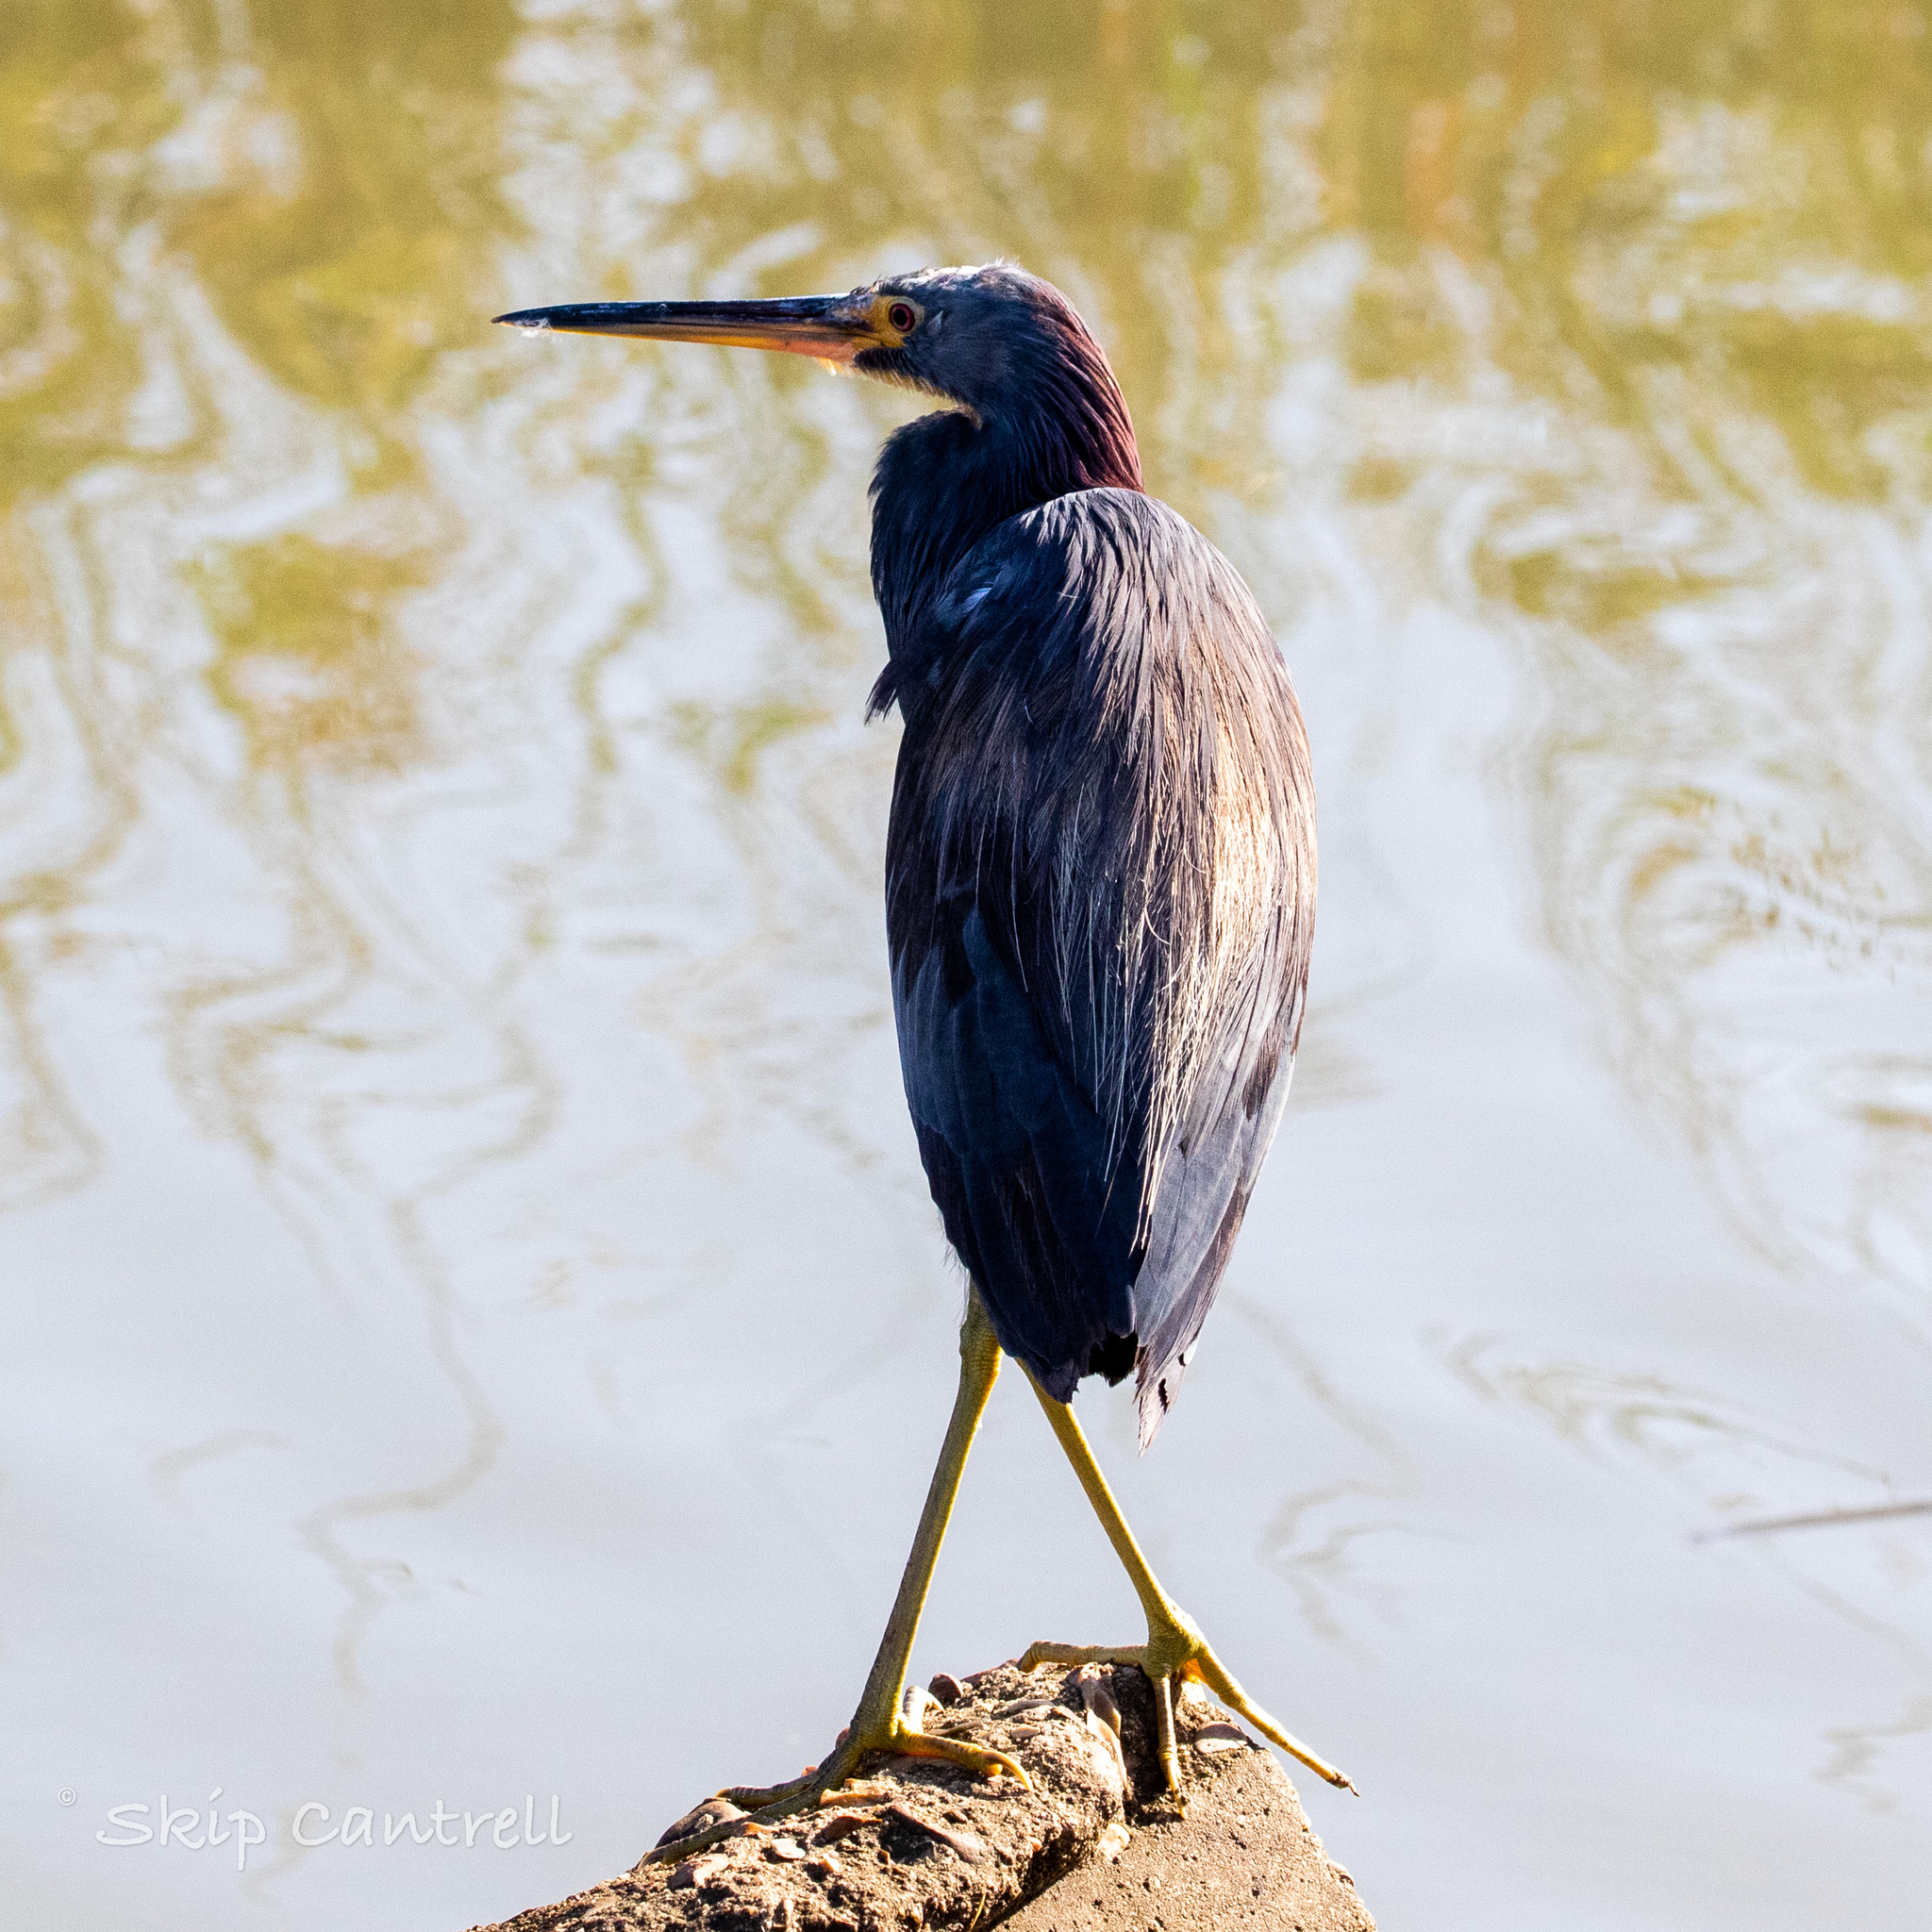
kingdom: Animalia
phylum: Chordata
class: Aves
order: Pelecaniformes
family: Ardeidae
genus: Egretta
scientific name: Egretta tricolor
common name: Tricolored heron
